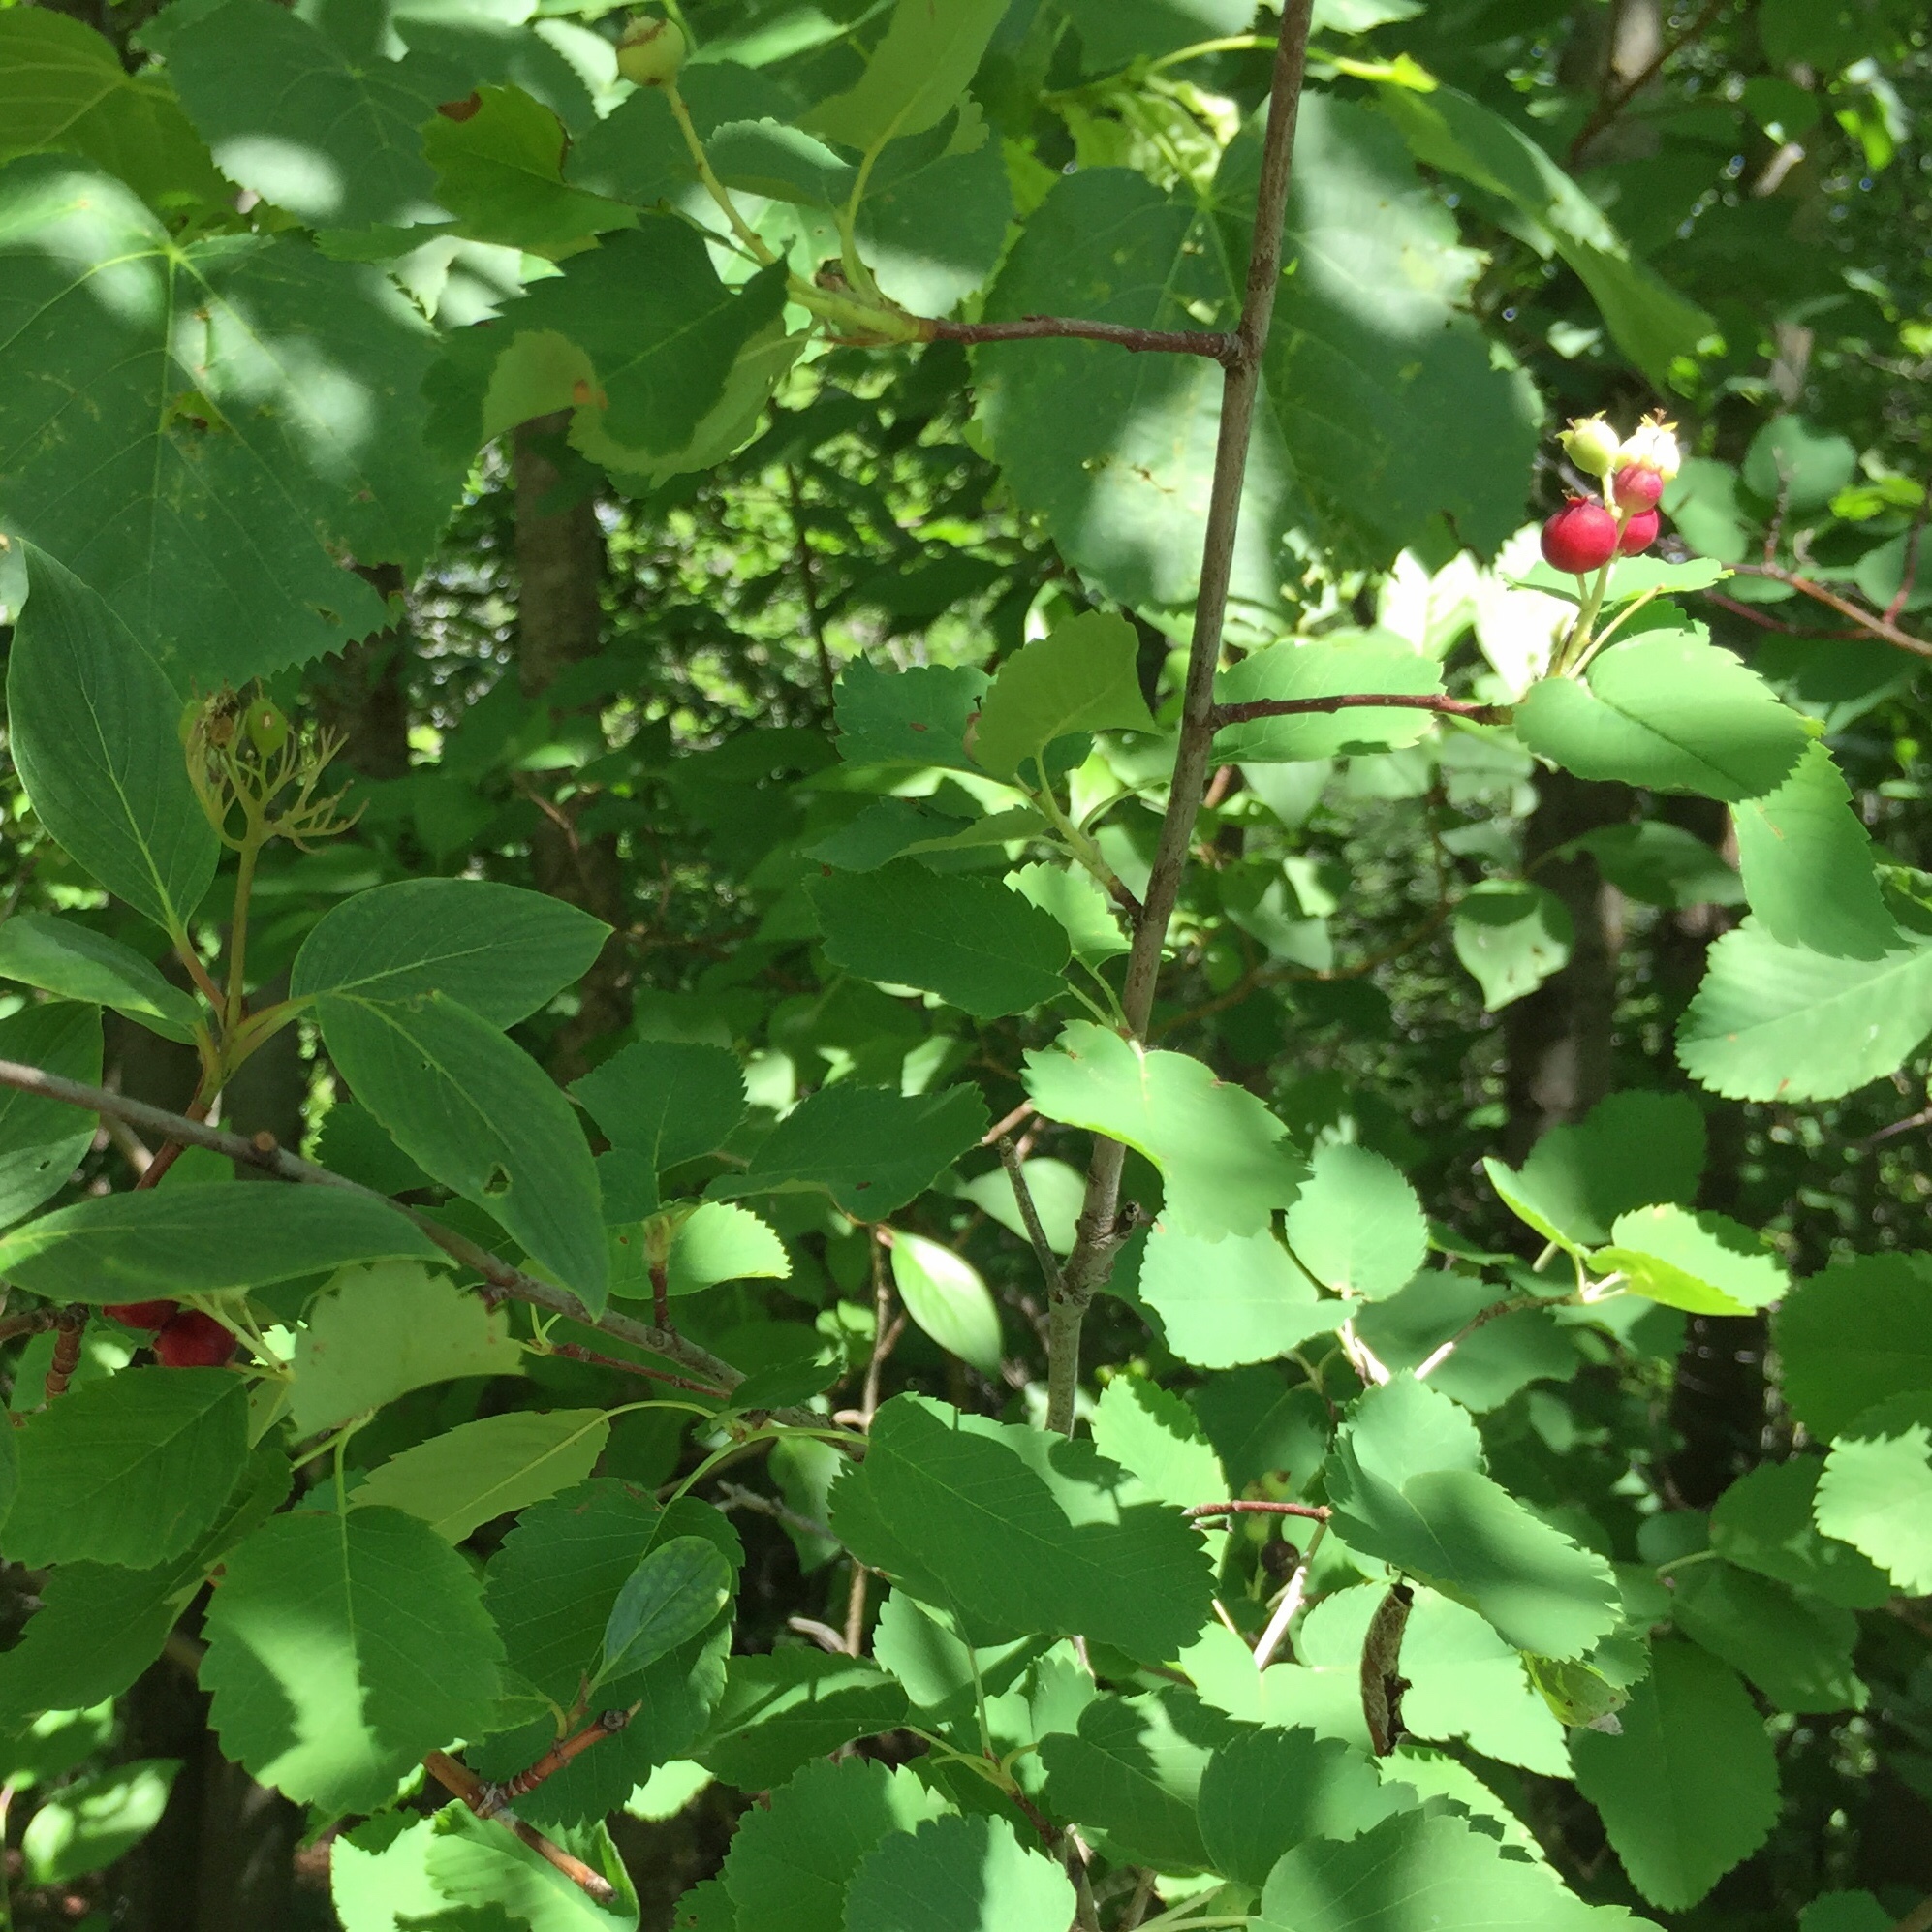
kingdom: Plantae
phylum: Tracheophyta
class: Magnoliopsida
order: Rosales
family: Rosaceae
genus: Amelanchier
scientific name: Amelanchier alnifolia
